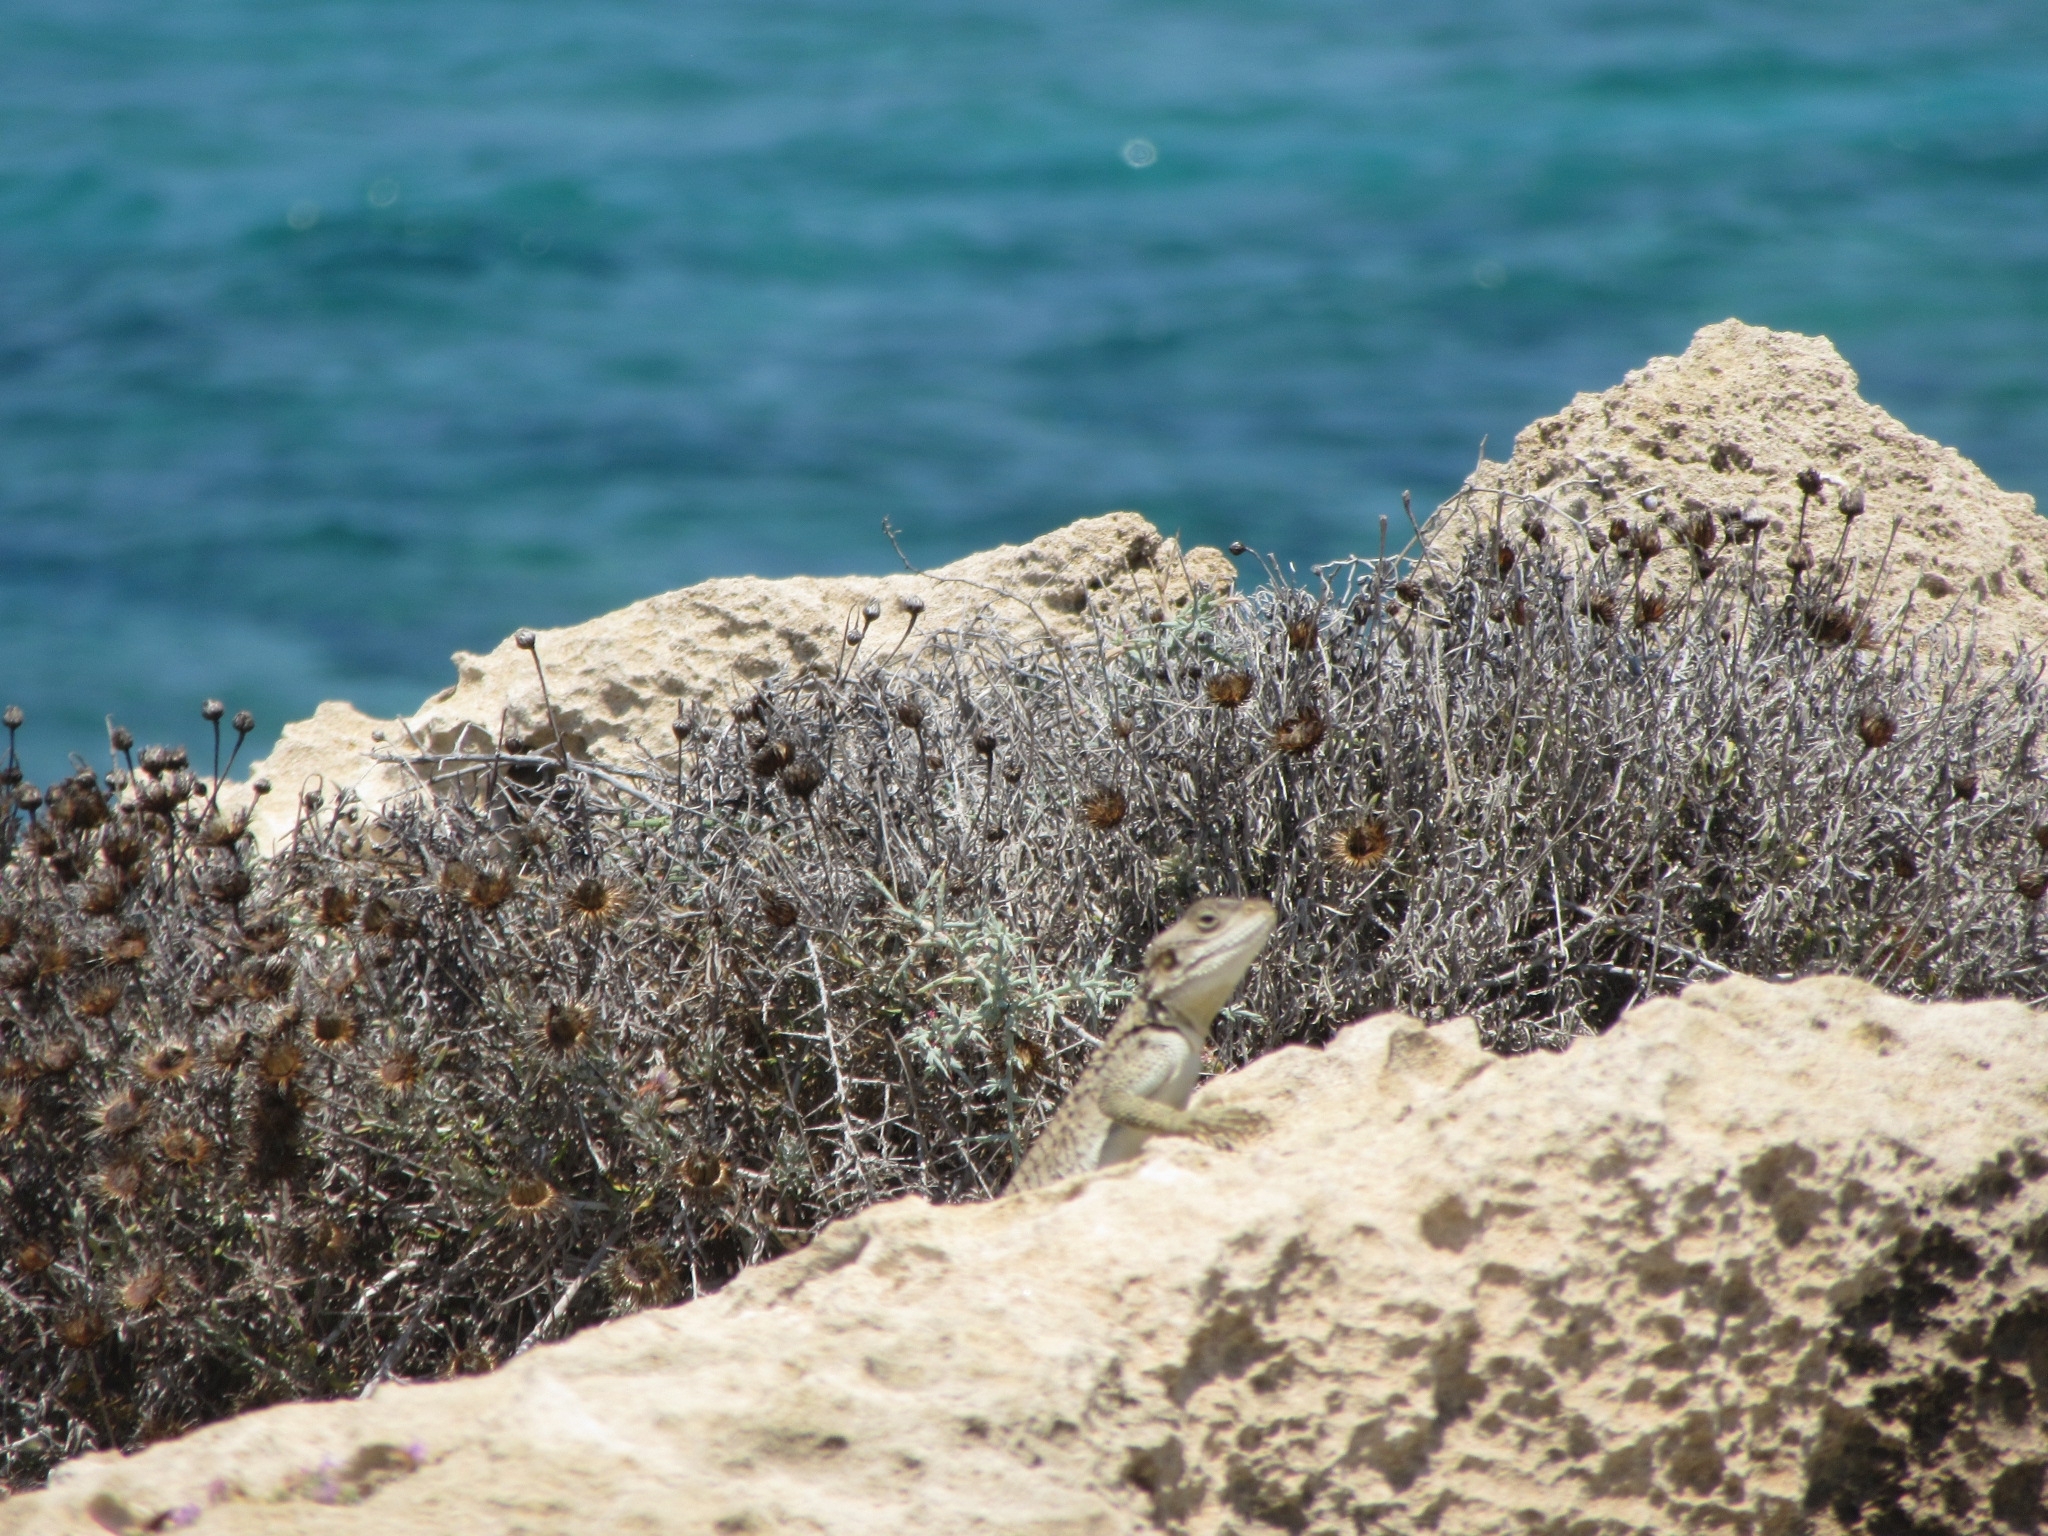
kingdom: Animalia
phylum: Chordata
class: Squamata
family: Agamidae
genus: Laudakia
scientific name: Laudakia
